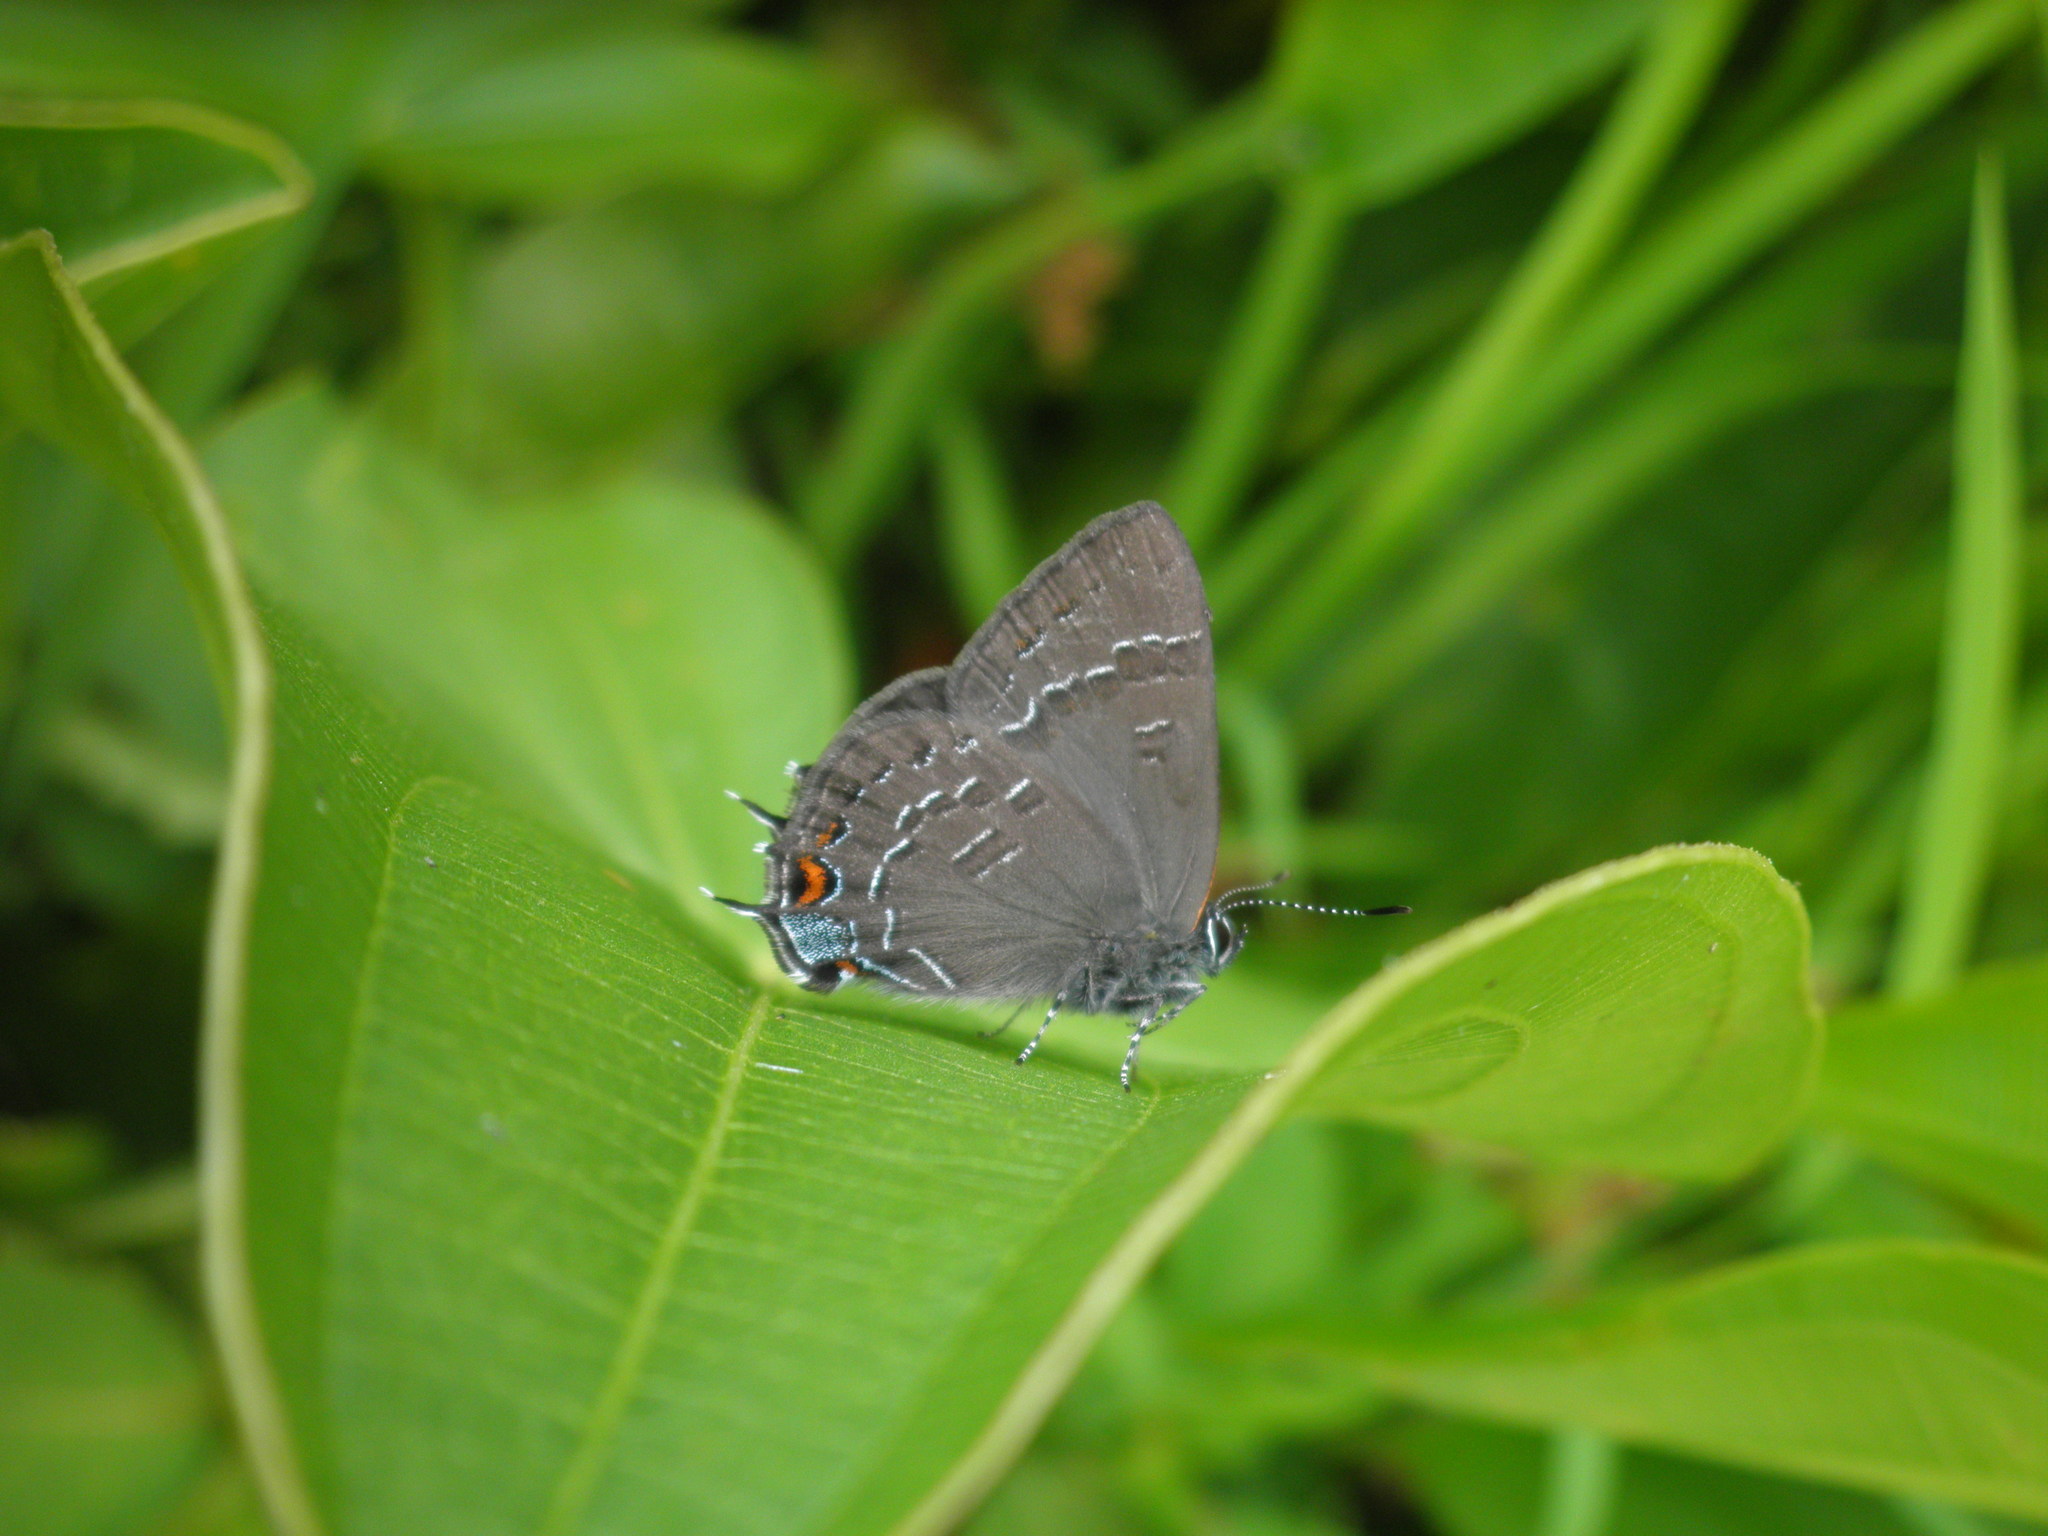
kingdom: Animalia
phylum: Arthropoda
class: Insecta
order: Lepidoptera
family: Lycaenidae
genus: Satyrium
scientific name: Satyrium calanus
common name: Banded hairstreak
